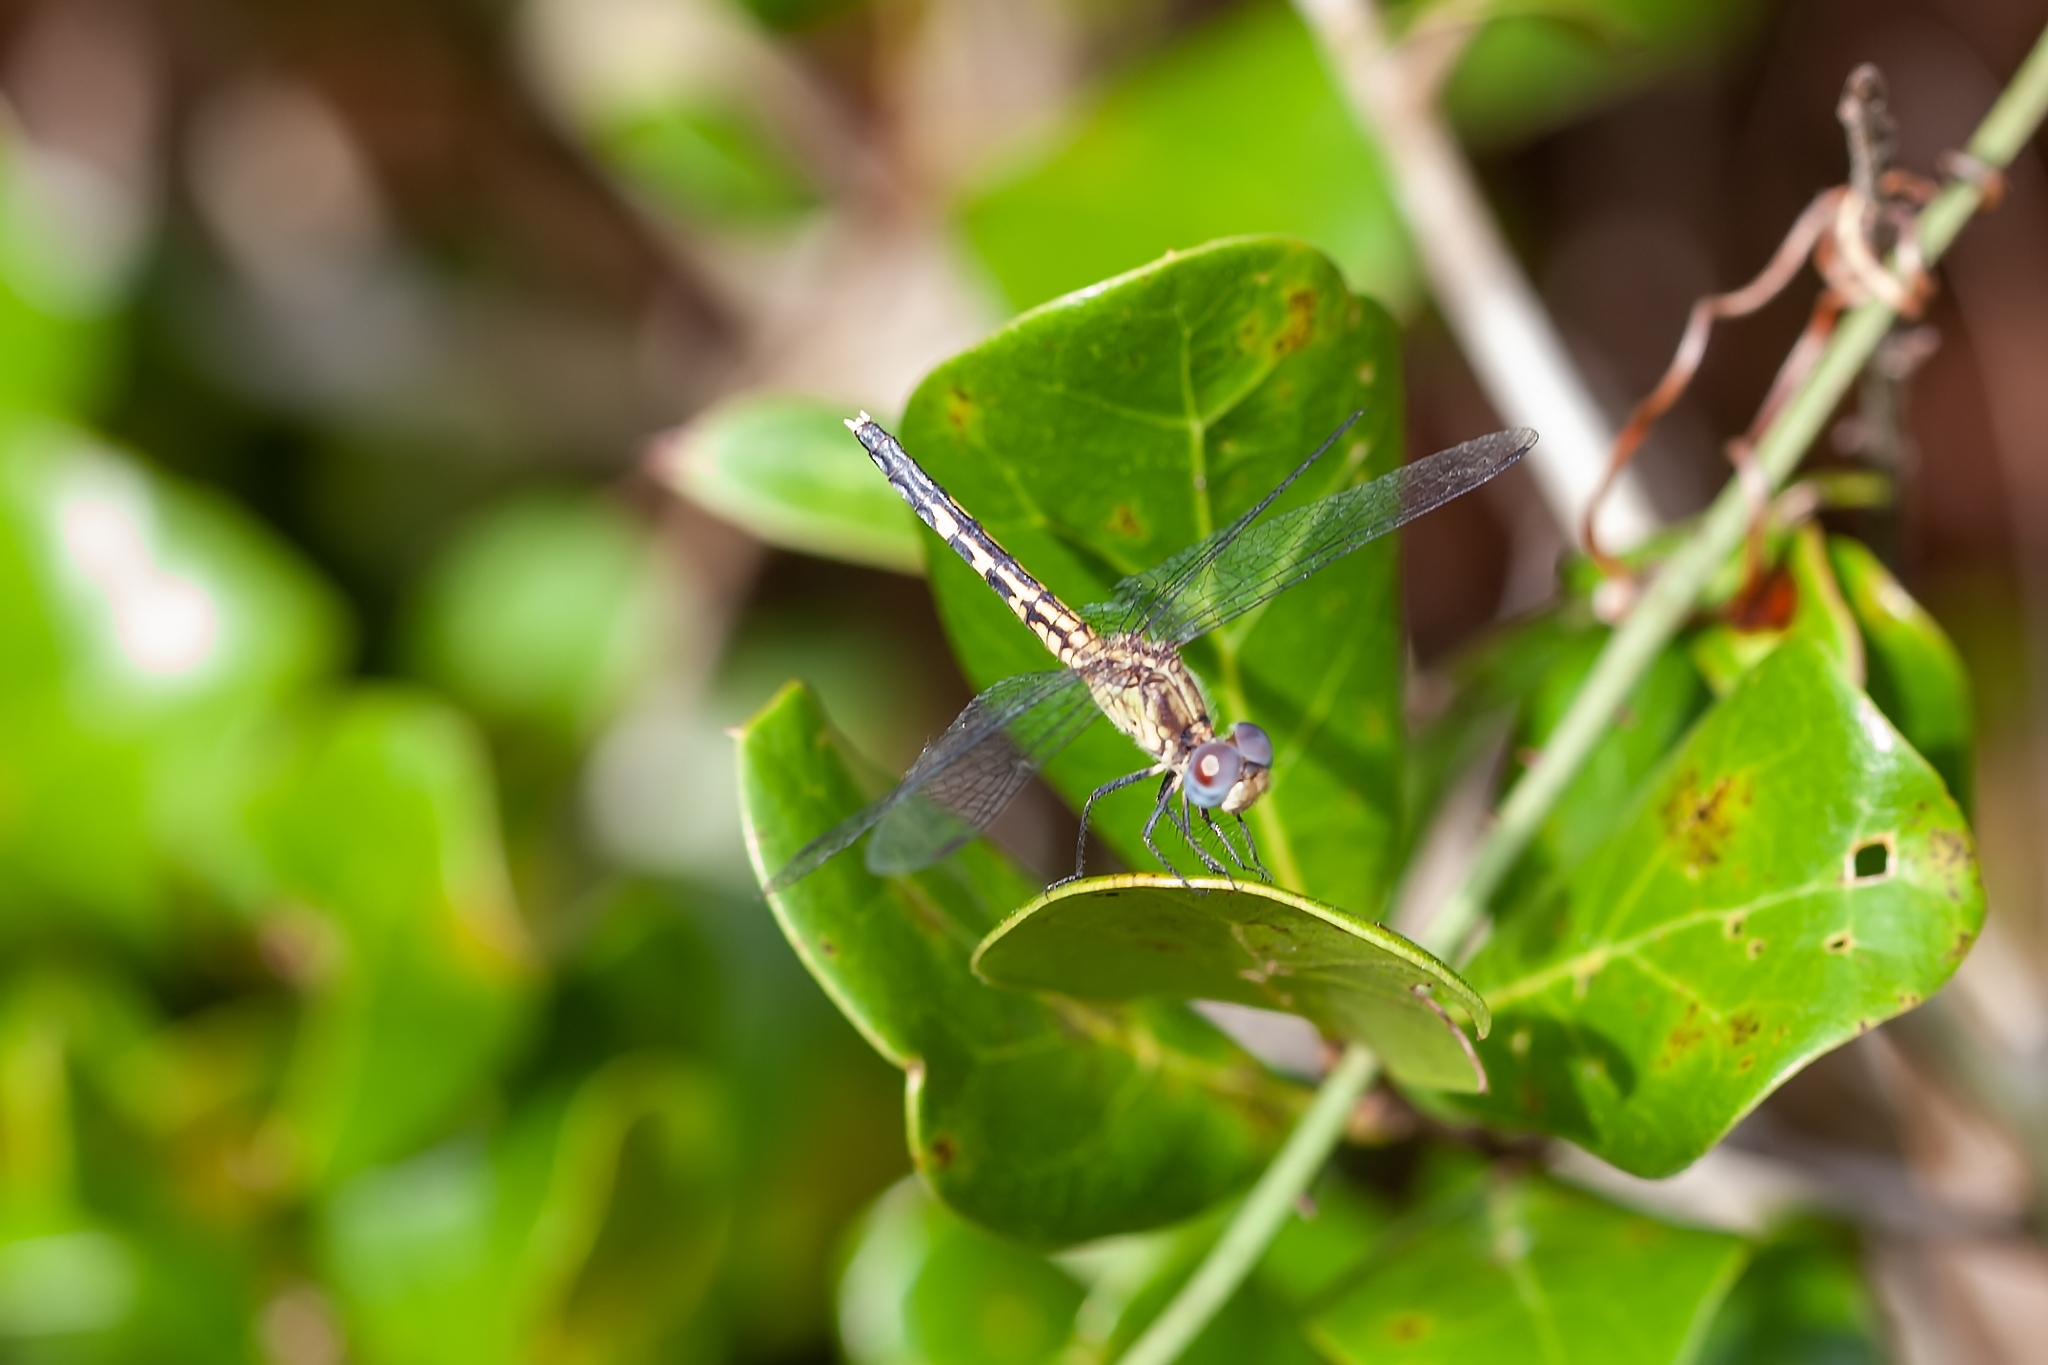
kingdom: Animalia
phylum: Arthropoda
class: Insecta
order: Odonata
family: Libellulidae
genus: Erythrodiplax
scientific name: Erythrodiplax minuscula
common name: Little blue dragonlet
